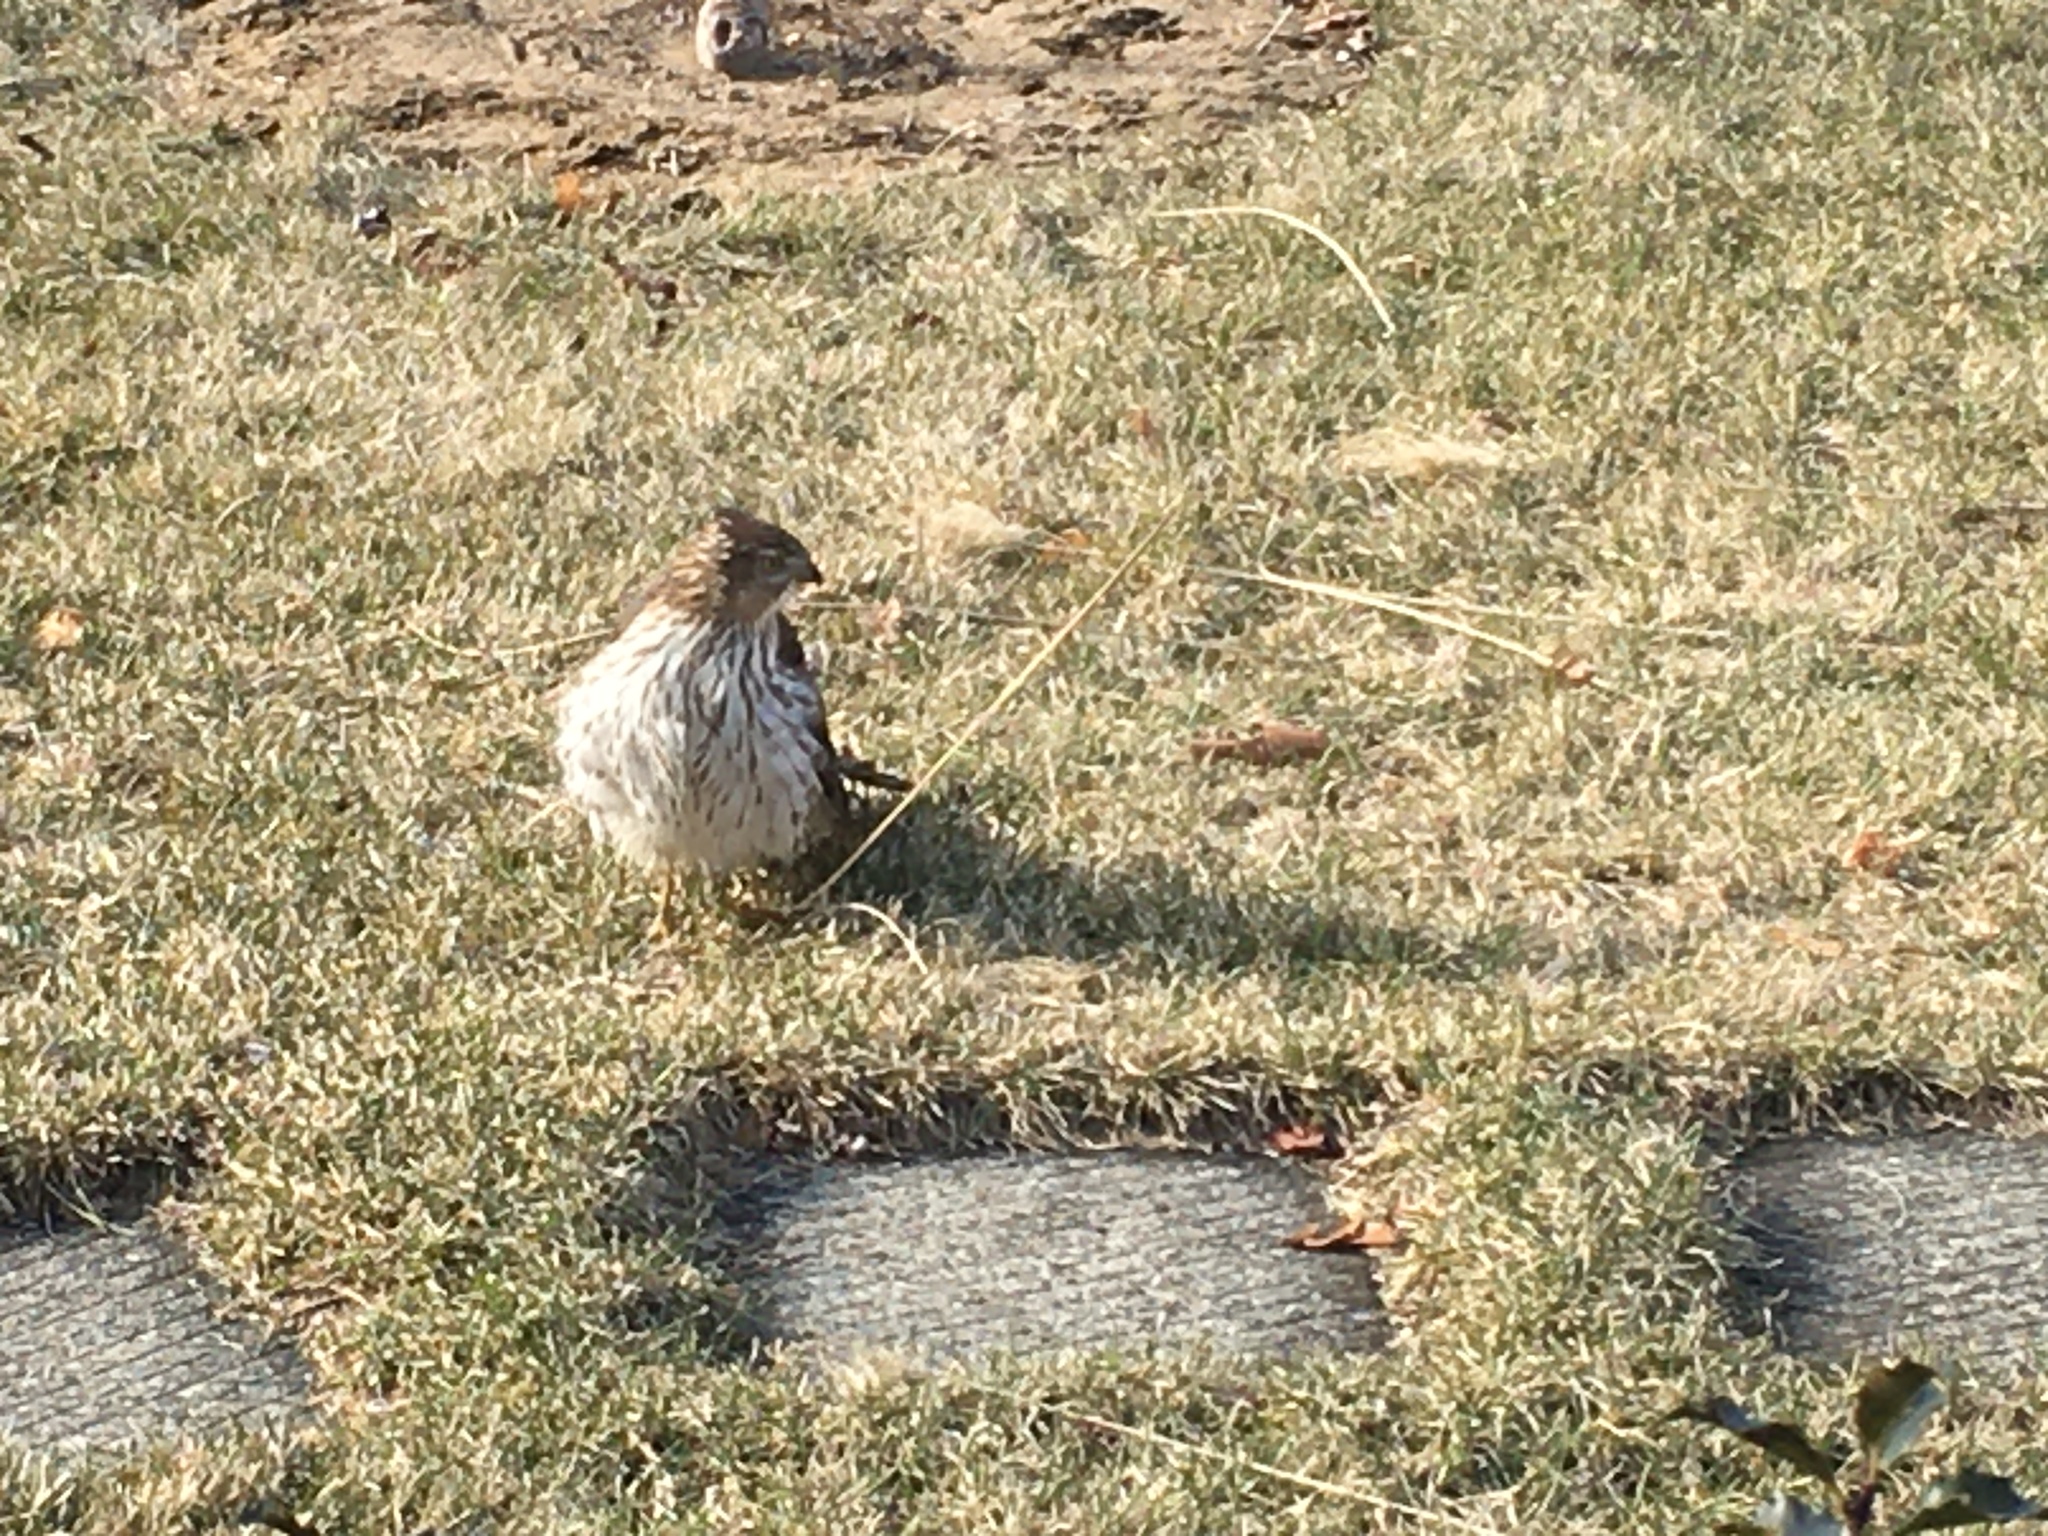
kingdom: Animalia
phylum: Chordata
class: Aves
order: Accipitriformes
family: Accipitridae
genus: Accipiter
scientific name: Accipiter cooperii
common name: Cooper's hawk
